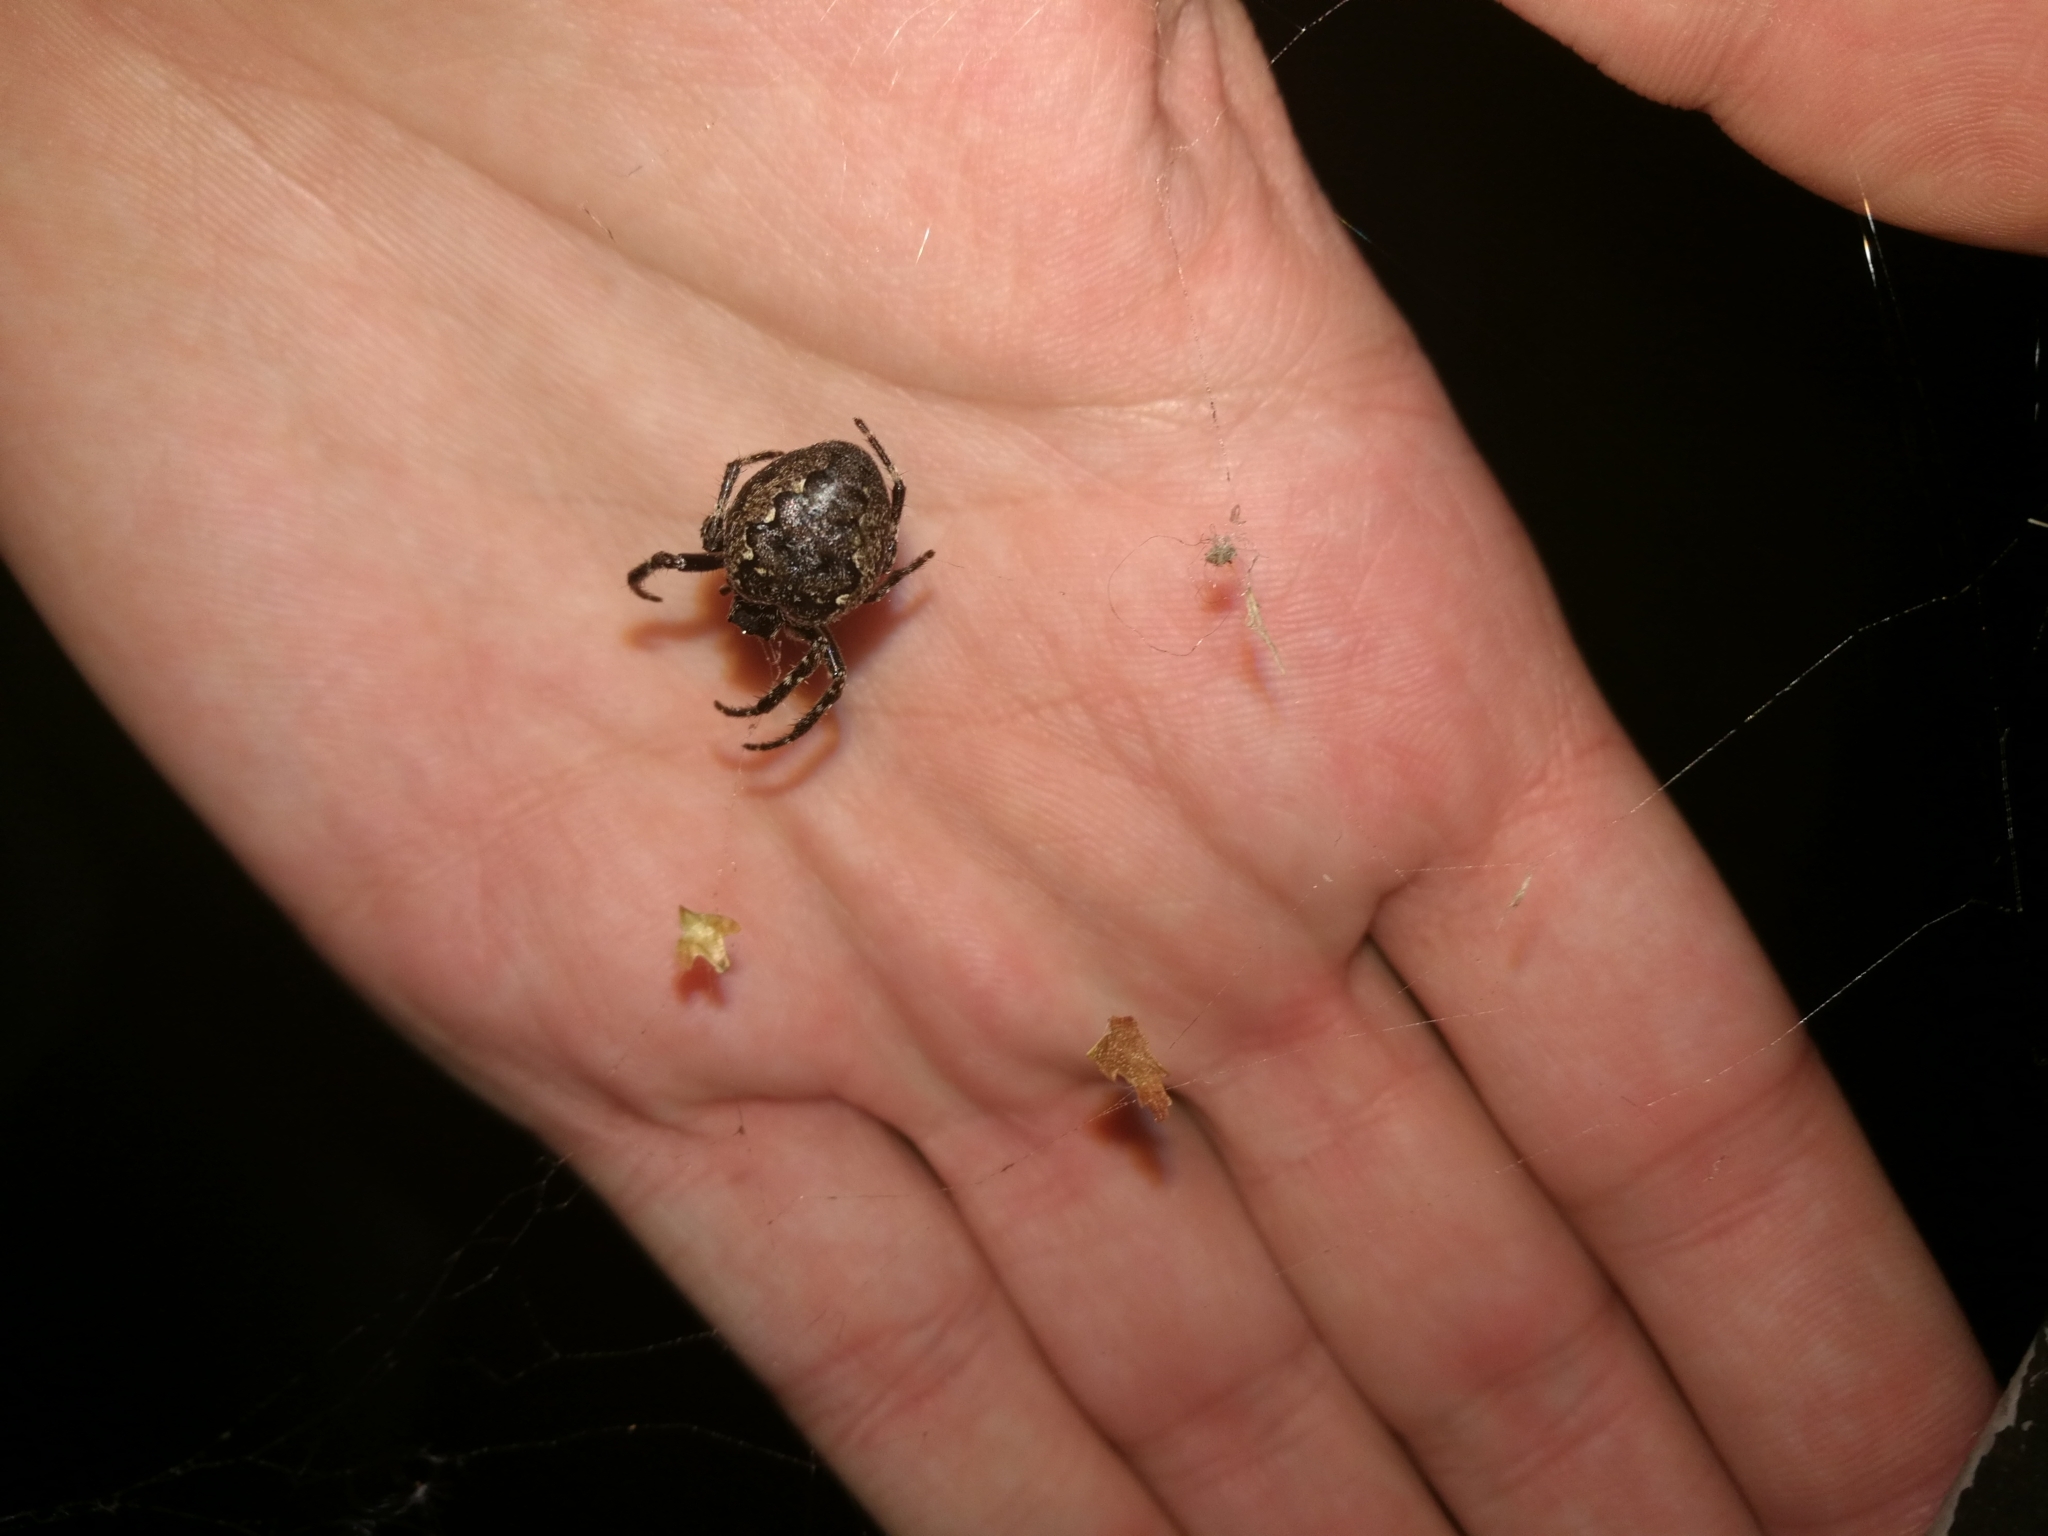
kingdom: Animalia
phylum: Arthropoda
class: Arachnida
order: Araneae
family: Araneidae
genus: Nuctenea
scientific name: Nuctenea umbratica
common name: Toad spider
